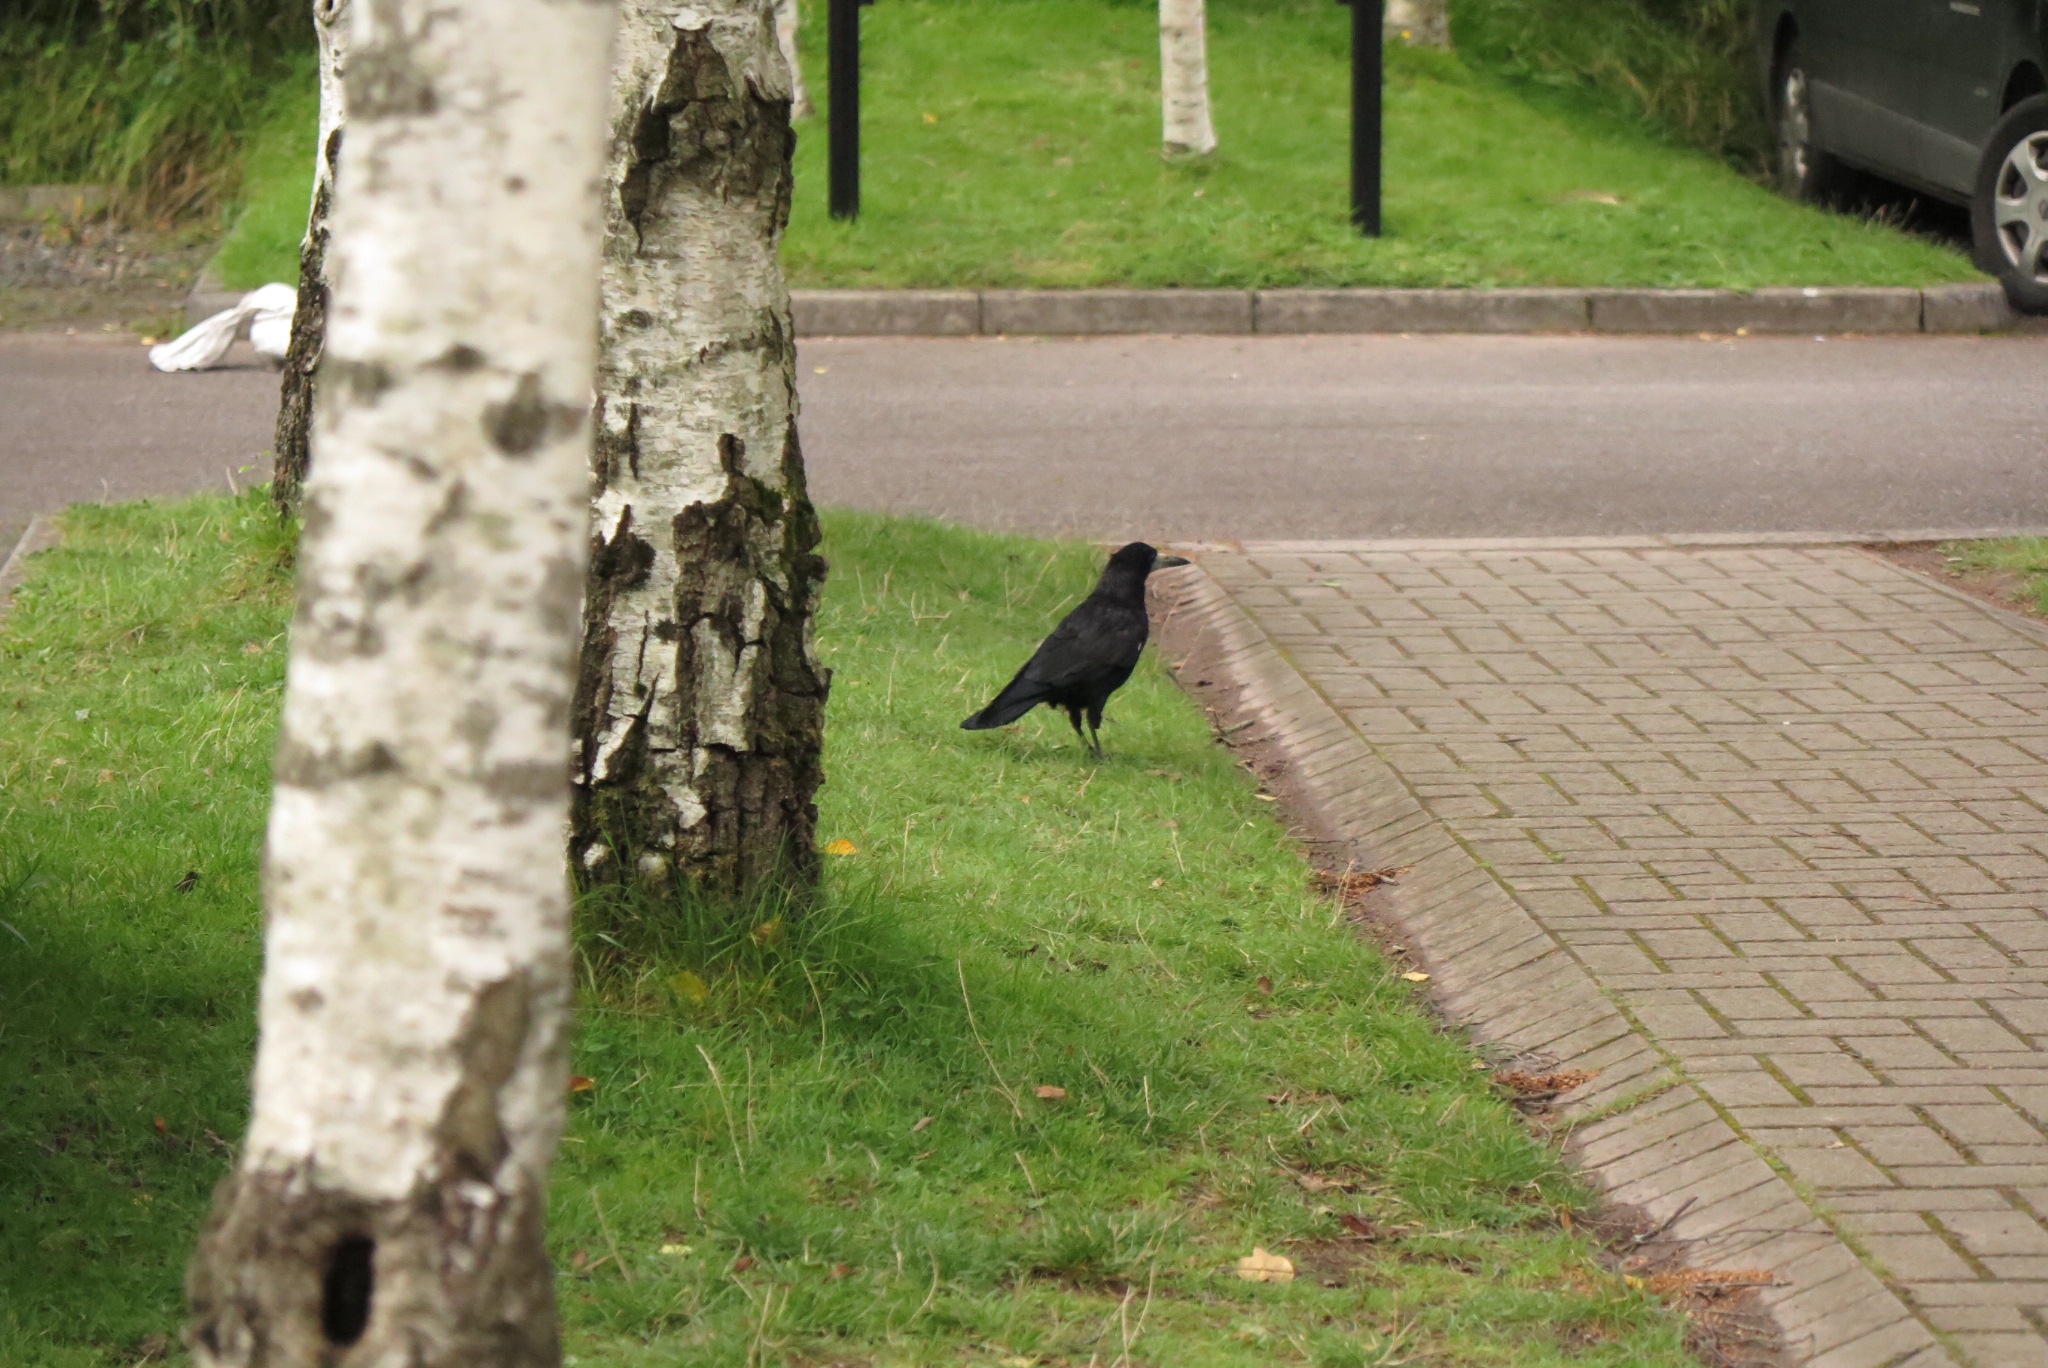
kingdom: Animalia
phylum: Chordata
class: Aves
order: Passeriformes
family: Corvidae
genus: Corvus
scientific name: Corvus frugilegus
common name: Rook
